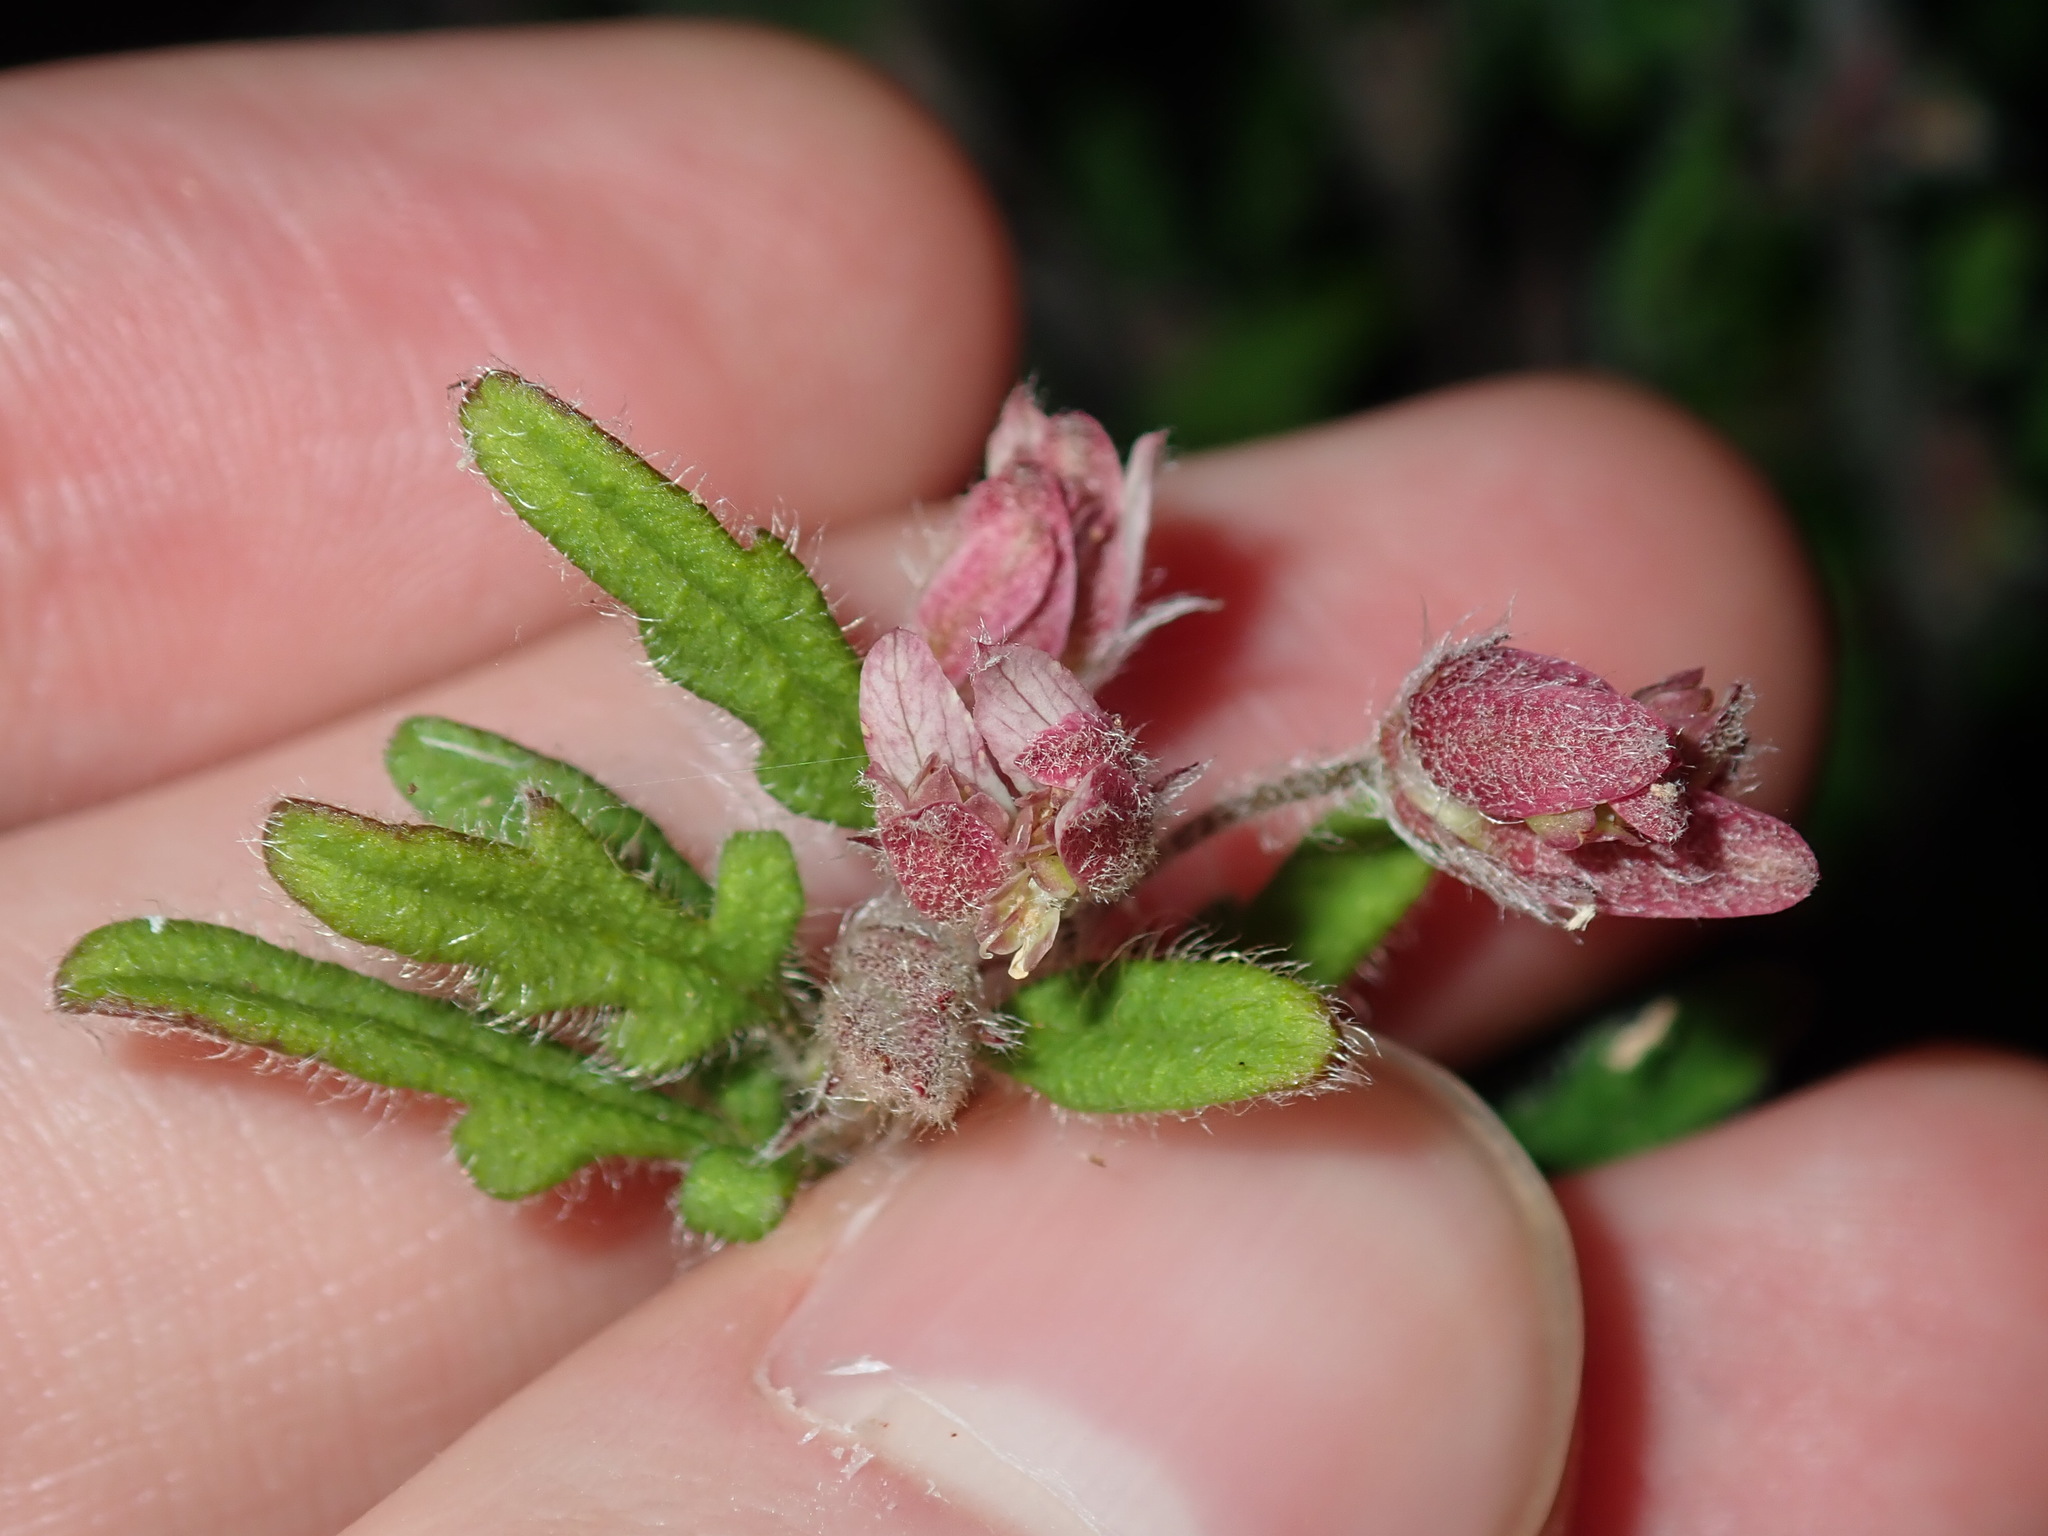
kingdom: Plantae
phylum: Tracheophyta
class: Magnoliopsida
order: Apiales
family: Apiaceae
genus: Xanthosia
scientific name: Xanthosia pilosa
